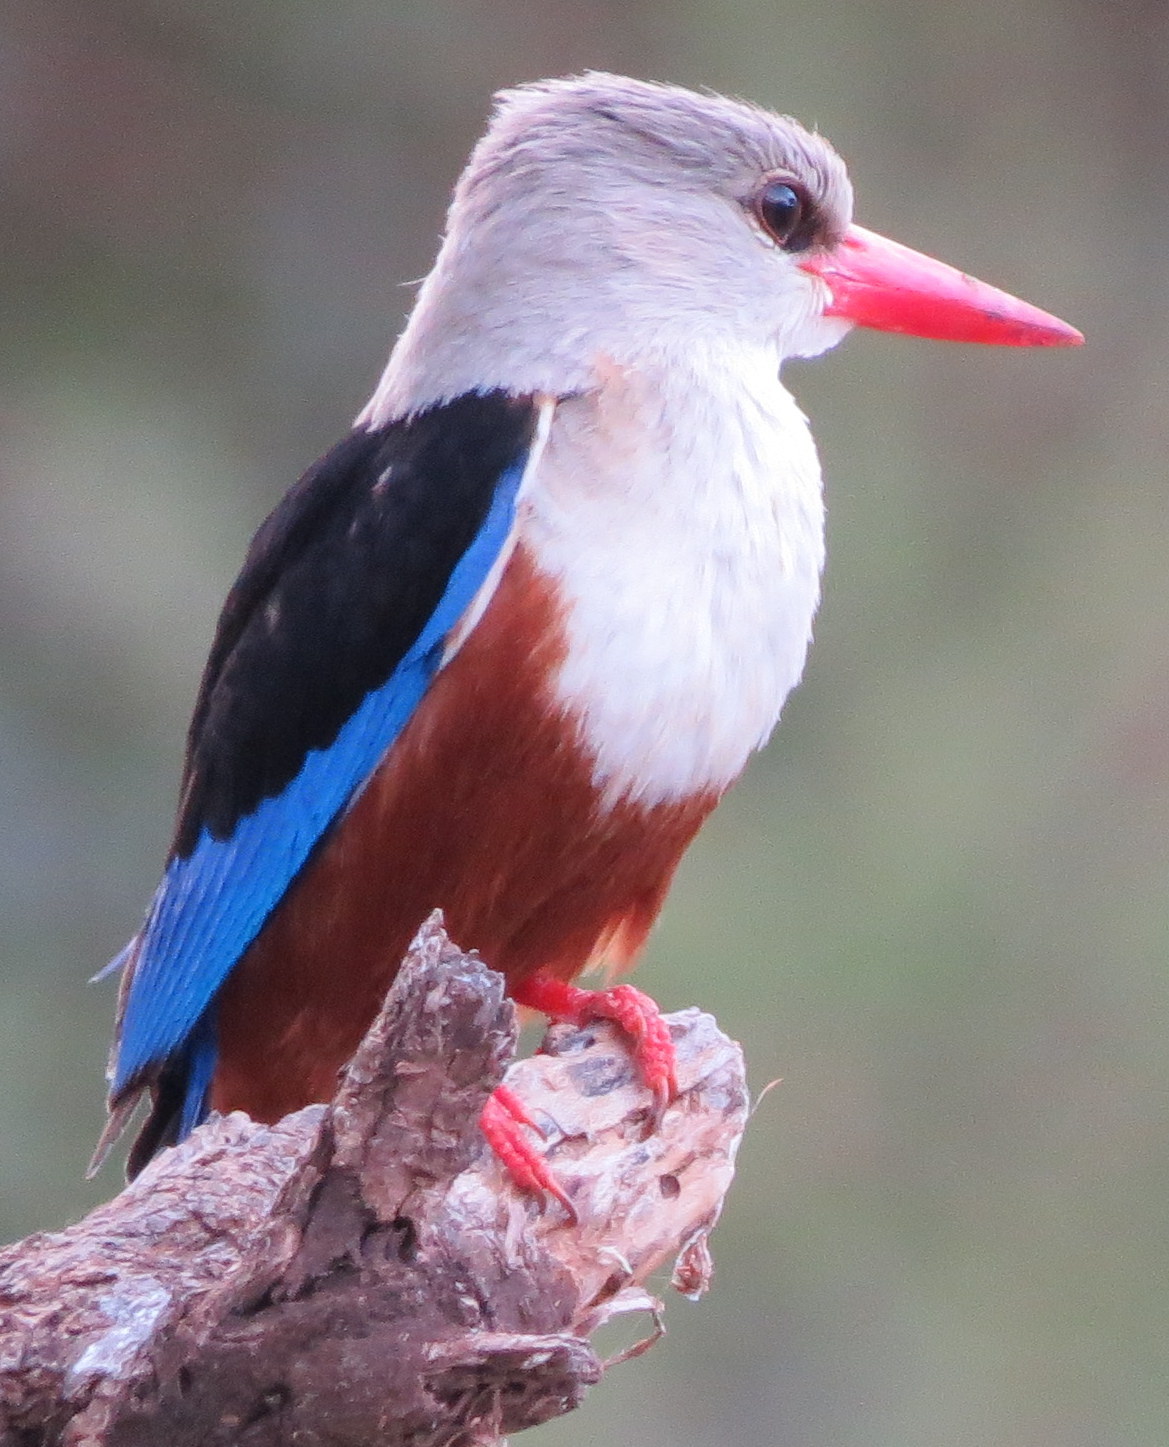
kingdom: Animalia
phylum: Chordata
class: Aves
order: Coraciiformes
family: Alcedinidae
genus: Halcyon
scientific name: Halcyon leucocephala
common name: Grey-headed kingfisher
